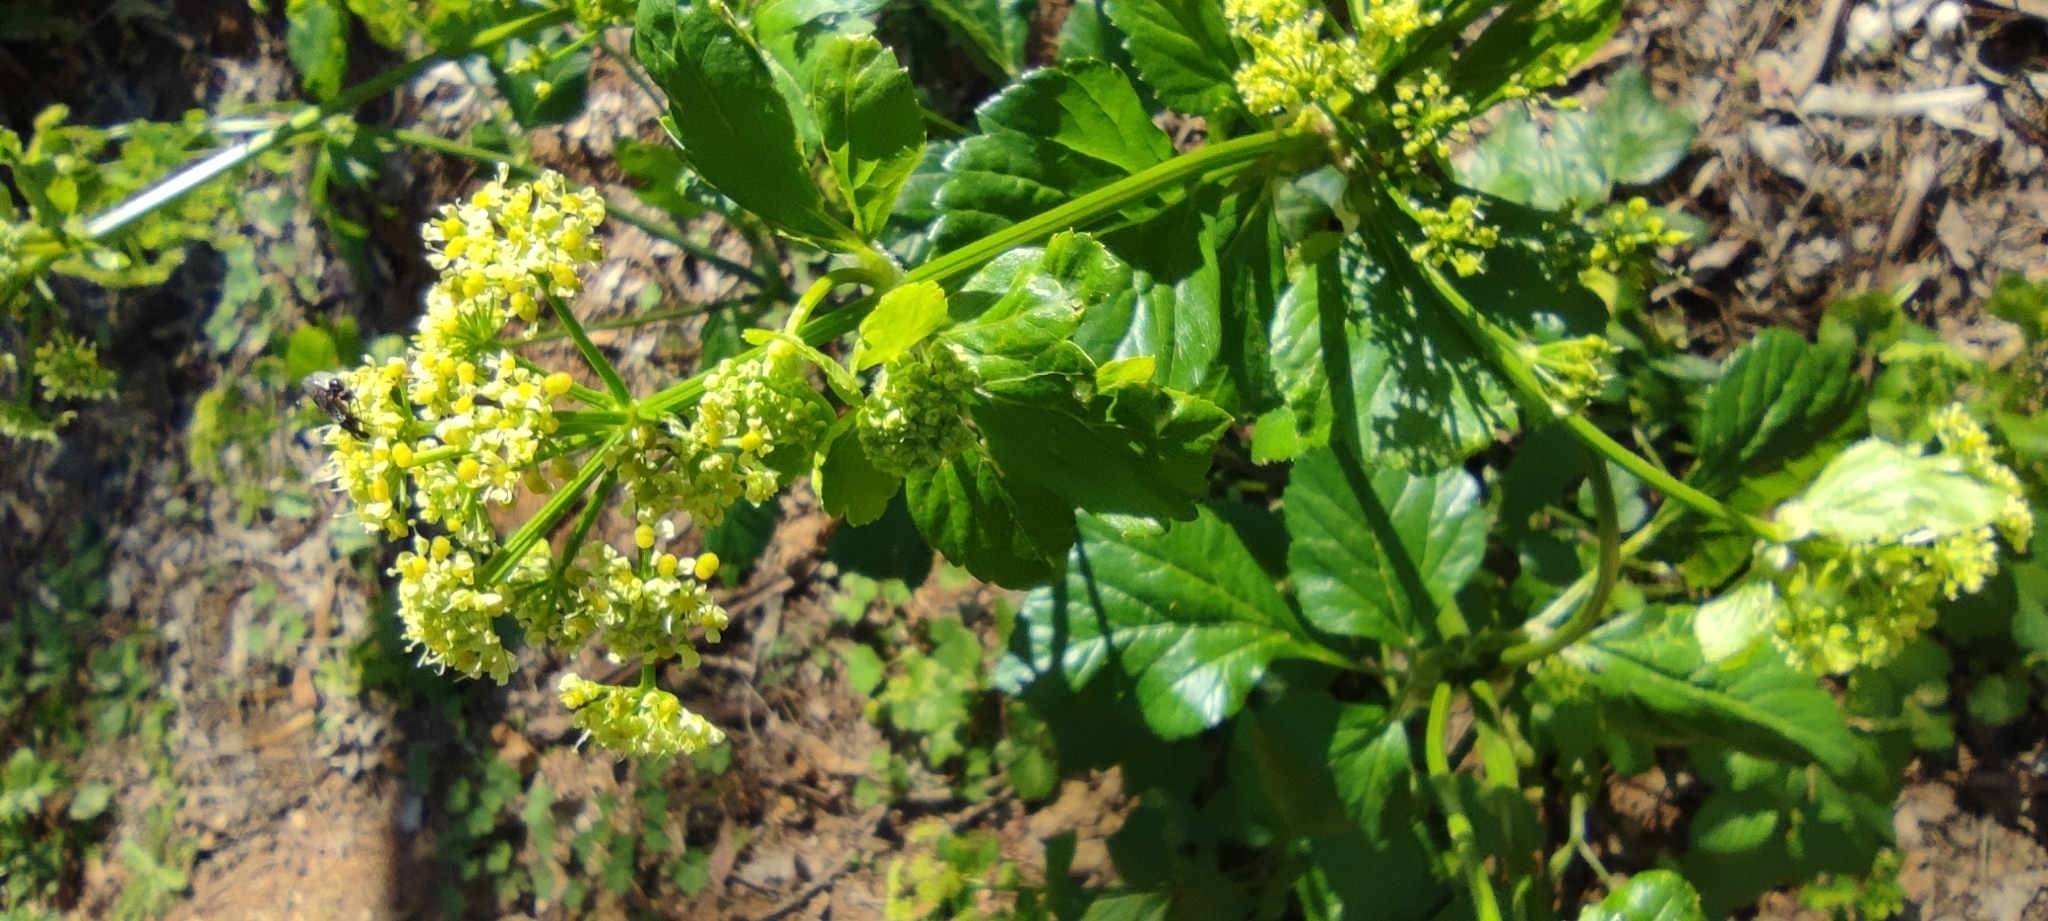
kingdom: Plantae
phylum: Tracheophyta
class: Magnoliopsida
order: Apiales
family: Apiaceae
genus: Smyrnium
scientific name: Smyrnium olusatrum
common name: Alexanders
